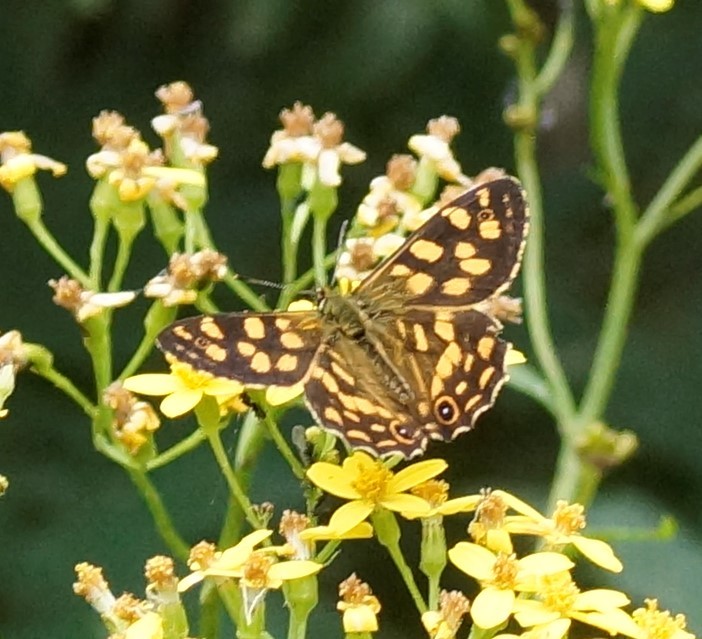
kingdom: Animalia
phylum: Arthropoda
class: Insecta
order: Lepidoptera
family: Nymphalidae
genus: Oreixenica
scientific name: Oreixenica kershawi
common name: Striped xenica
